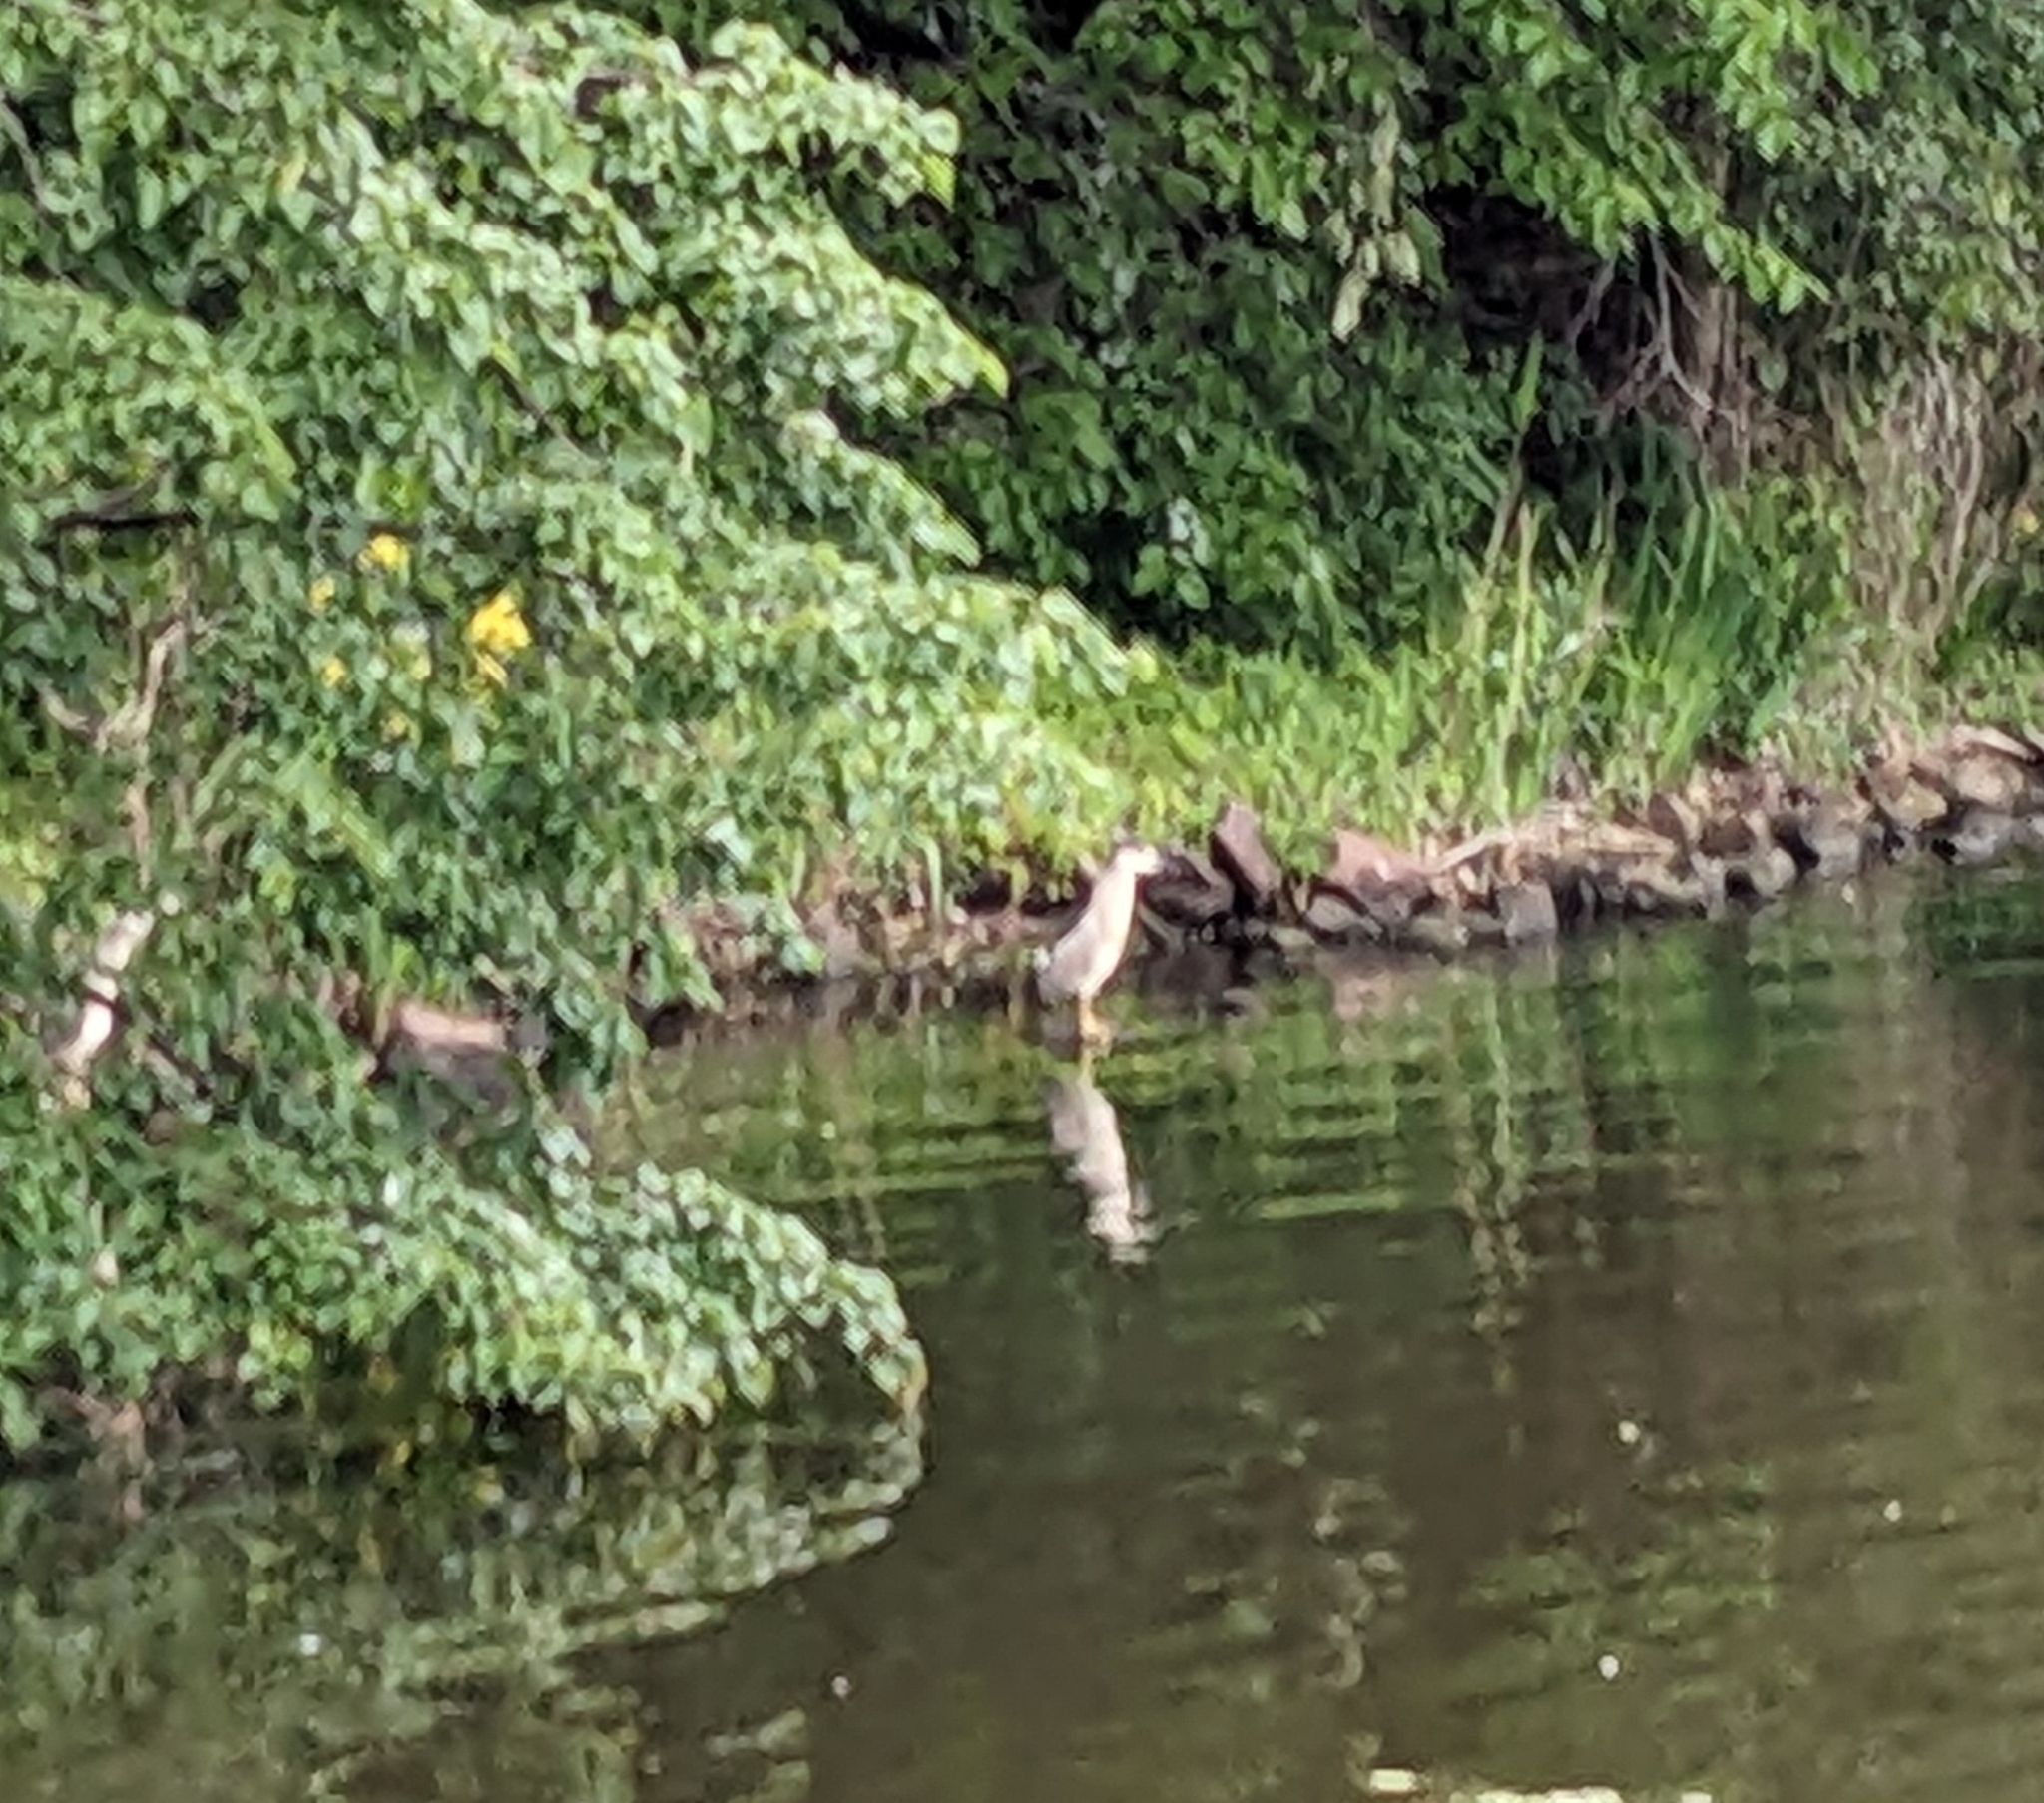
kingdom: Animalia
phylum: Chordata
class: Aves
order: Pelecaniformes
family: Ardeidae
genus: Nycticorax
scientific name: Nycticorax nycticorax
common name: Black-crowned night heron
